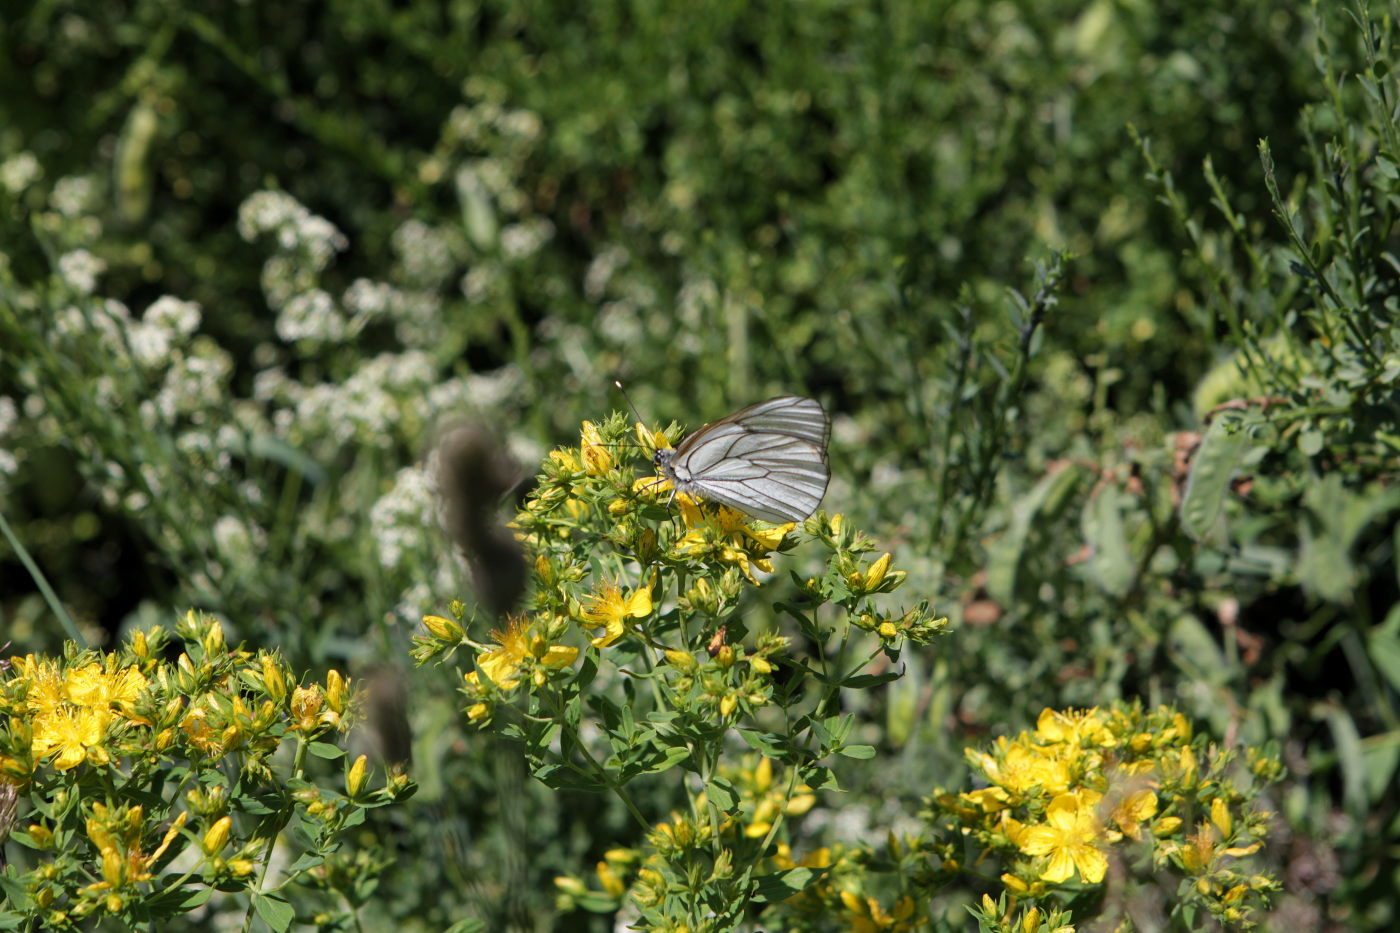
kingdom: Animalia
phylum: Arthropoda
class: Insecta
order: Lepidoptera
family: Pieridae
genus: Aporia
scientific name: Aporia crataegi
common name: Black-veined white
